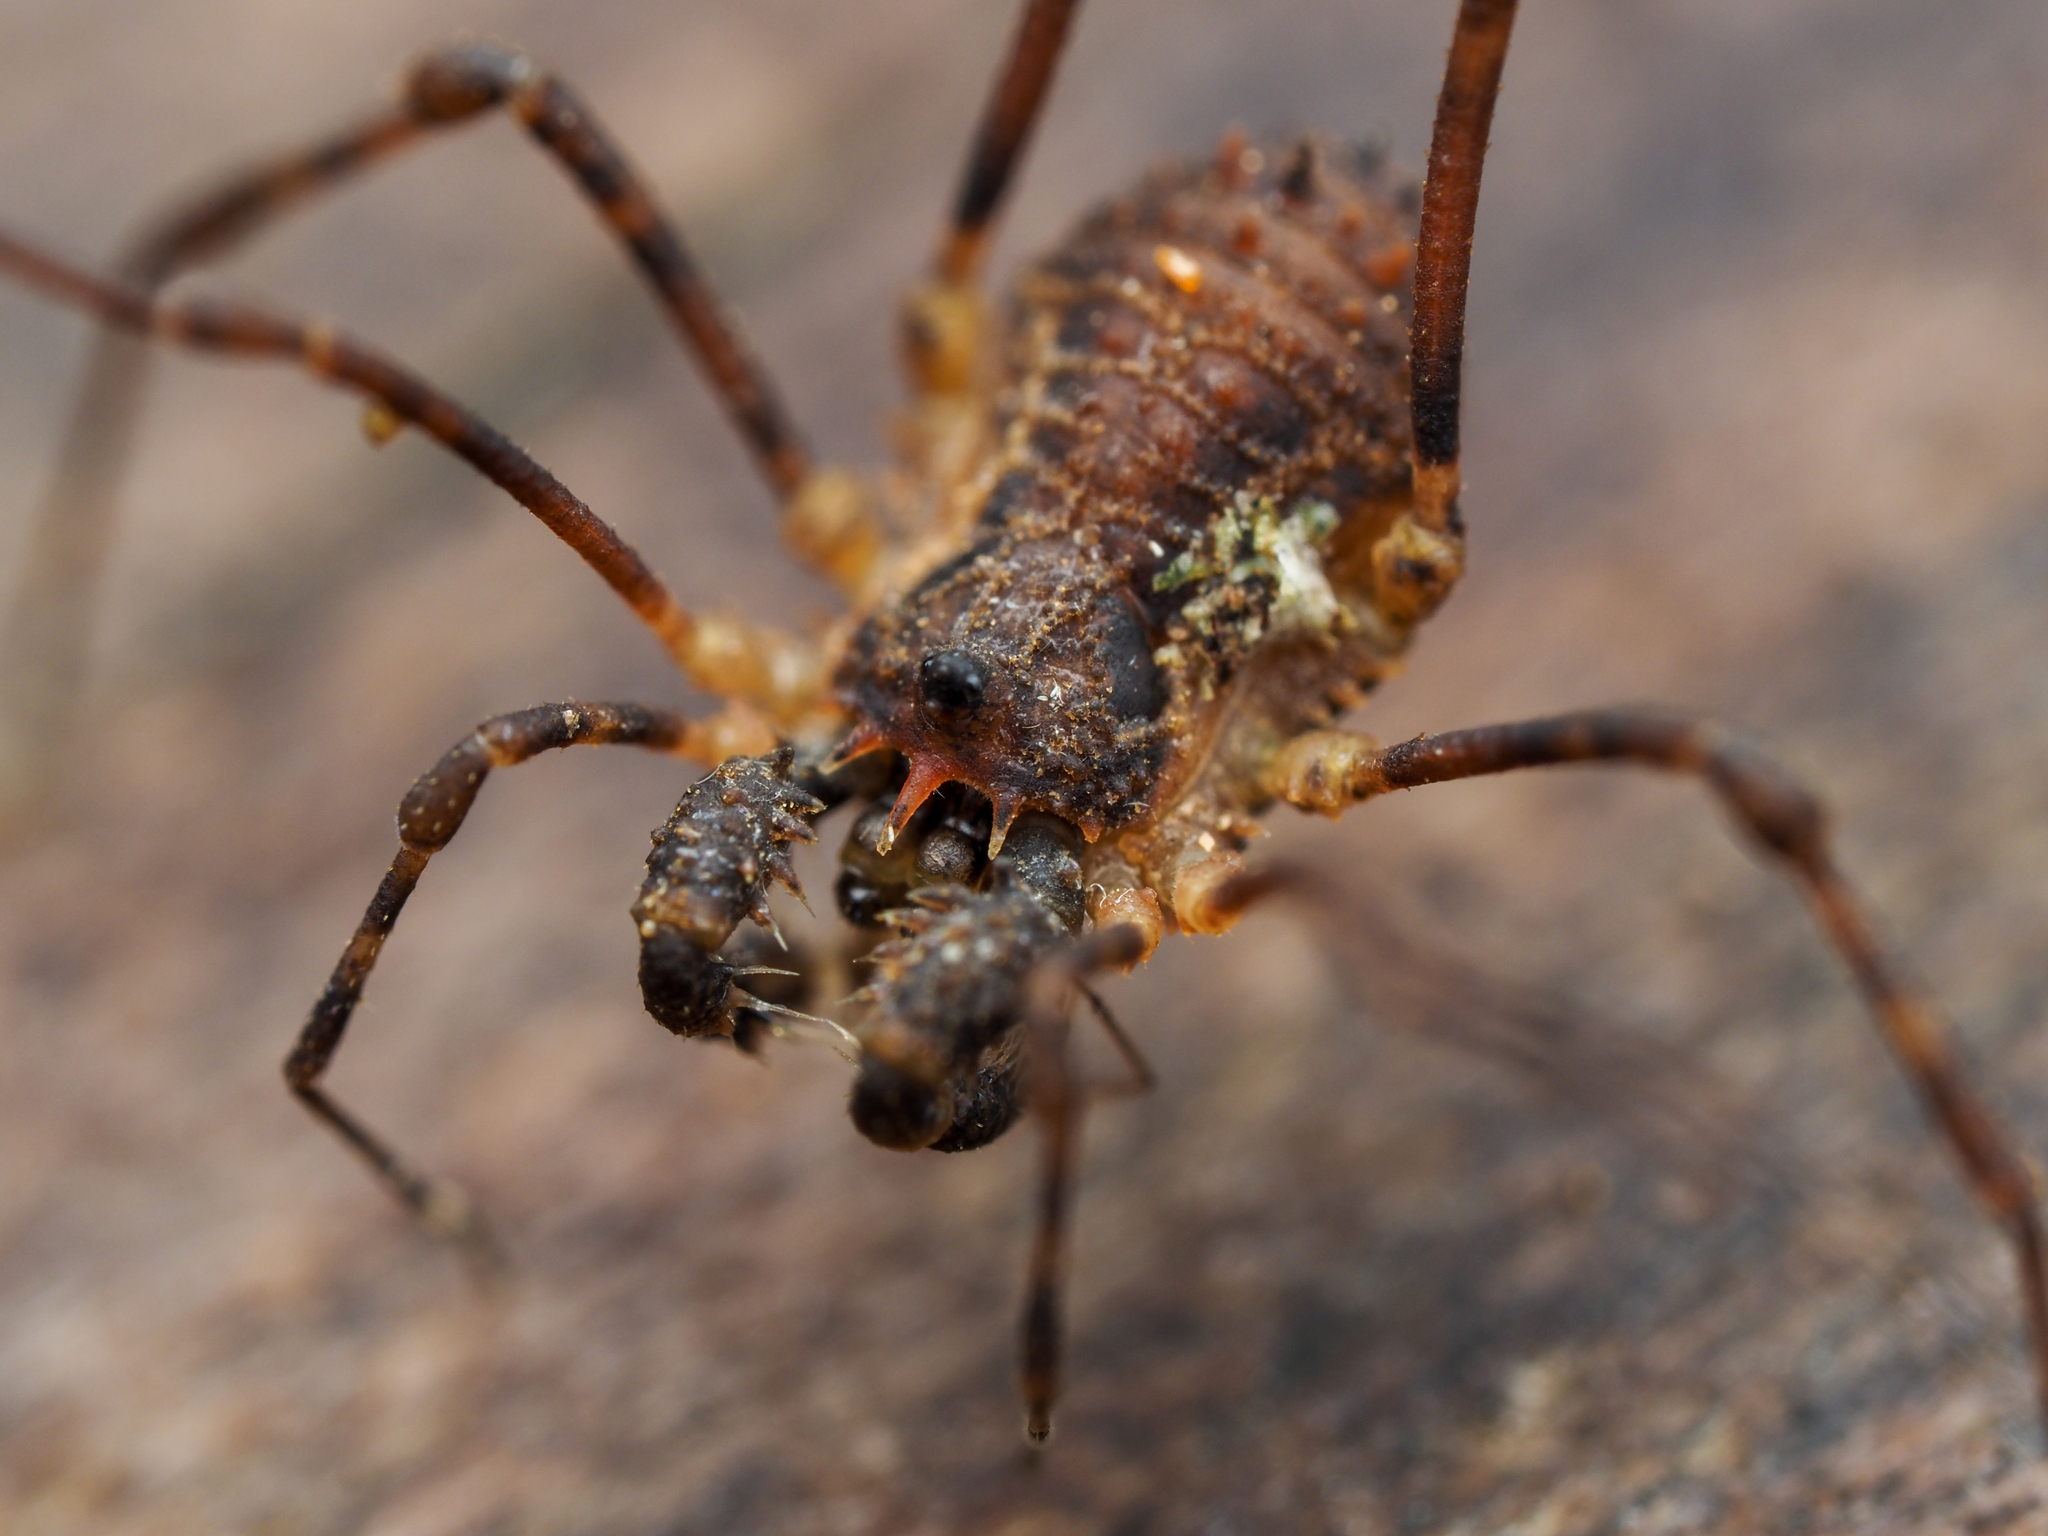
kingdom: Animalia
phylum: Arthropoda
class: Arachnida
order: Opiliones
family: Triaenonychidae
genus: Algidia
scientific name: Algidia chiltoni
